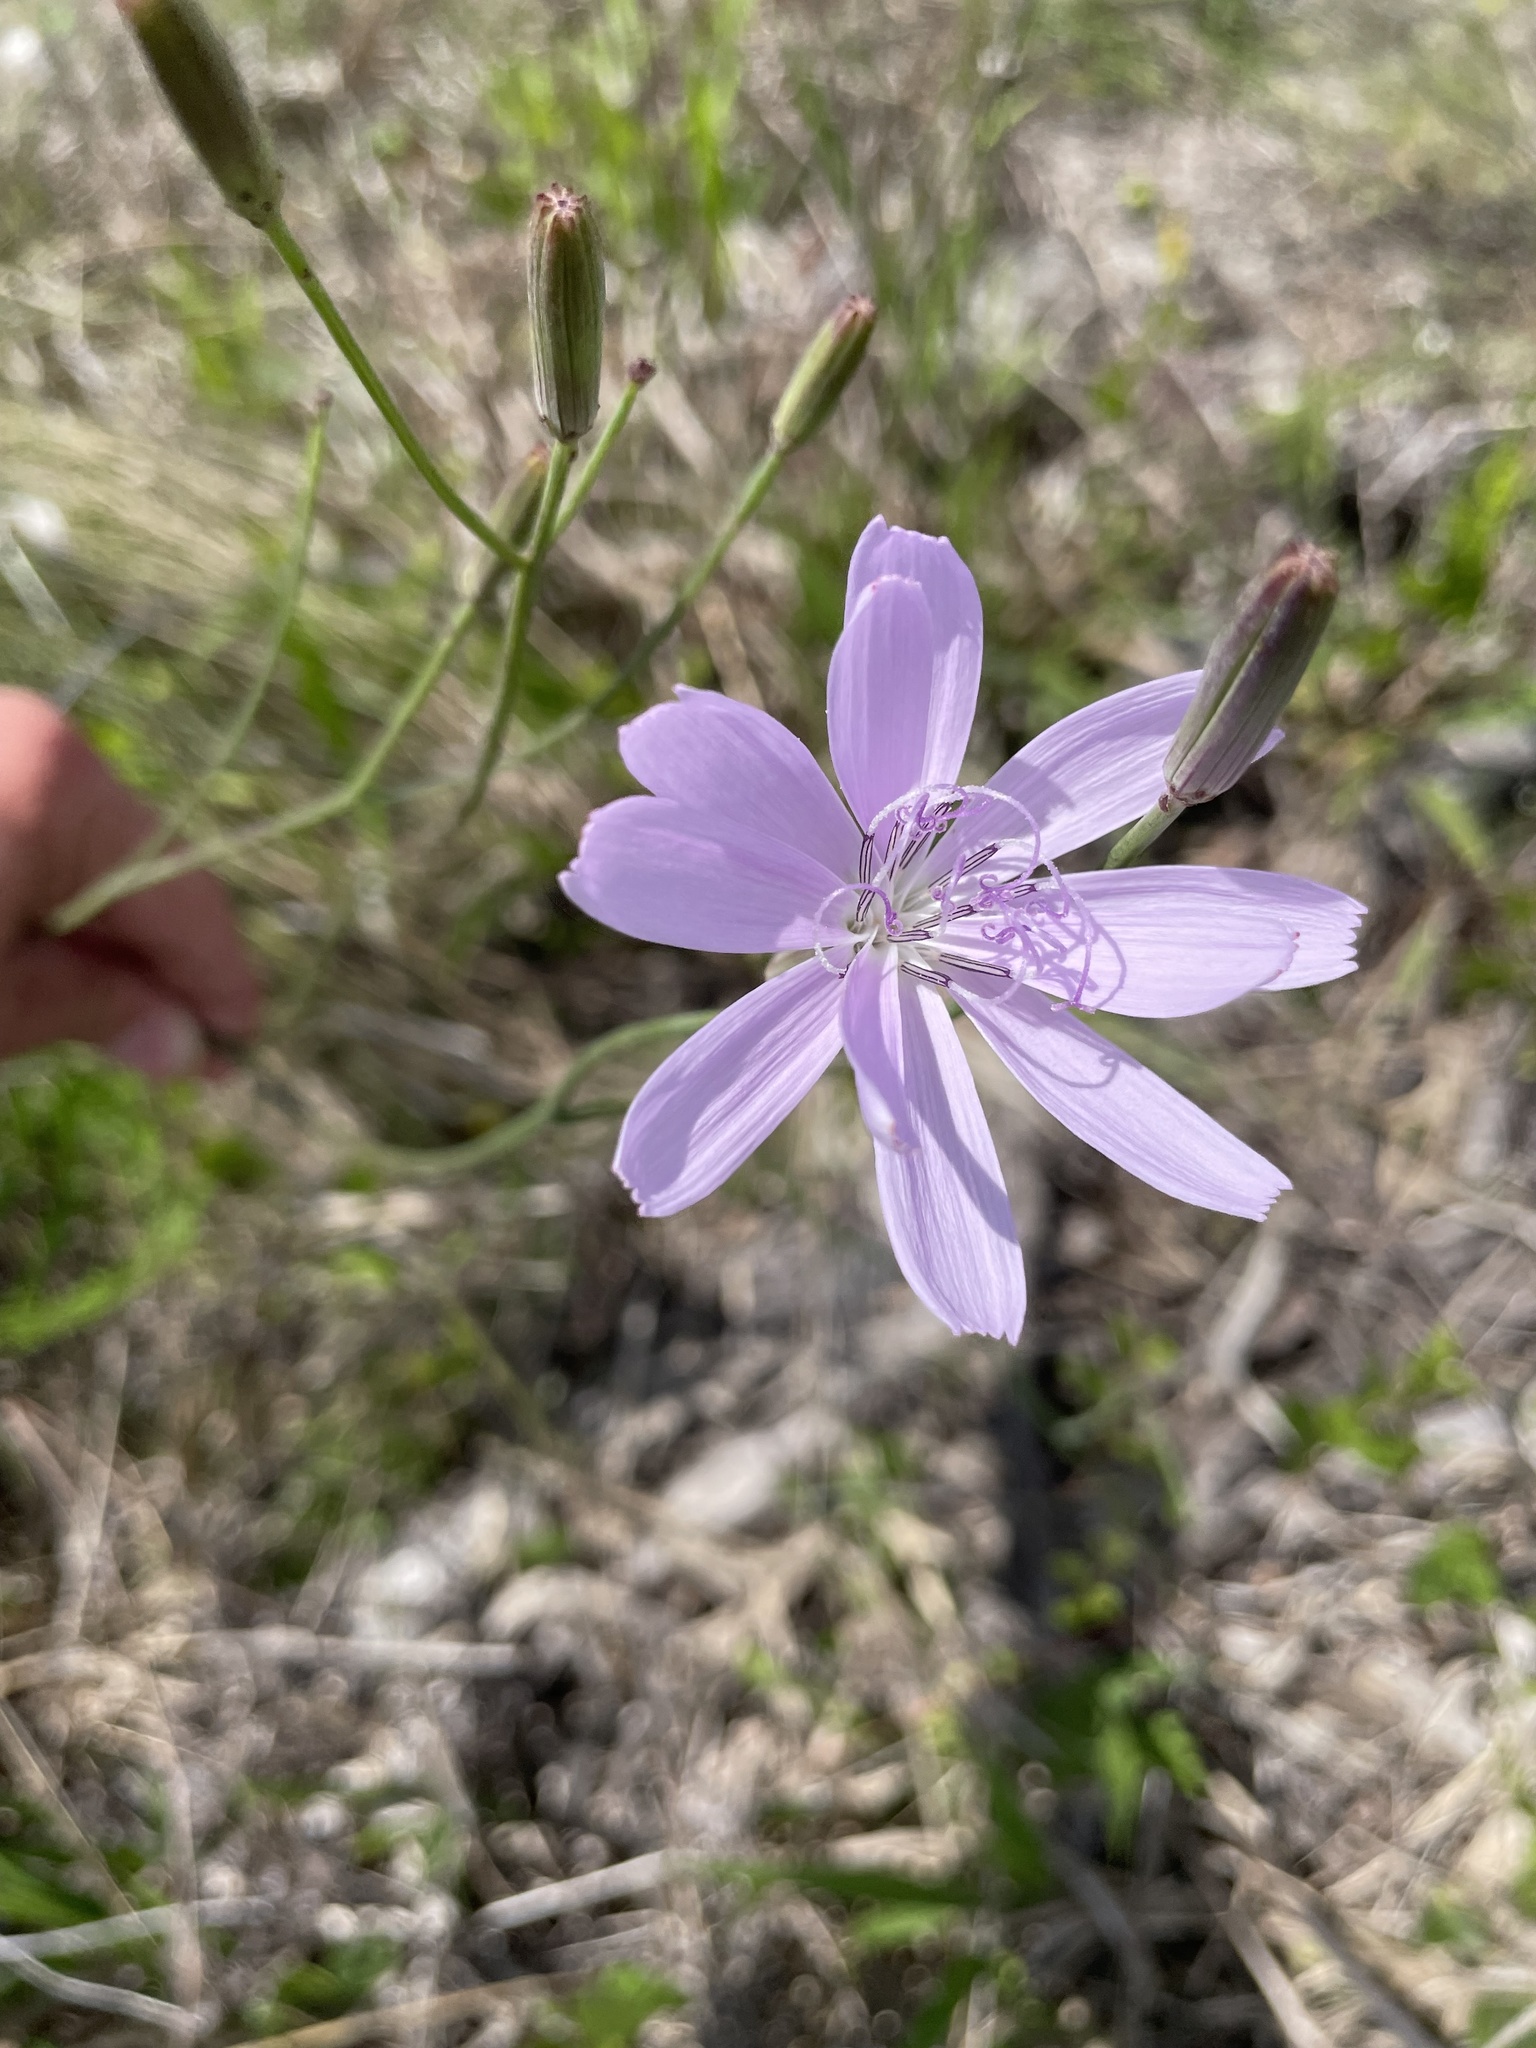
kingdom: Plantae
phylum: Tracheophyta
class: Magnoliopsida
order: Asterales
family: Asteraceae
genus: Lygodesmia
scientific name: Lygodesmia aphylla
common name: Rose-rush
